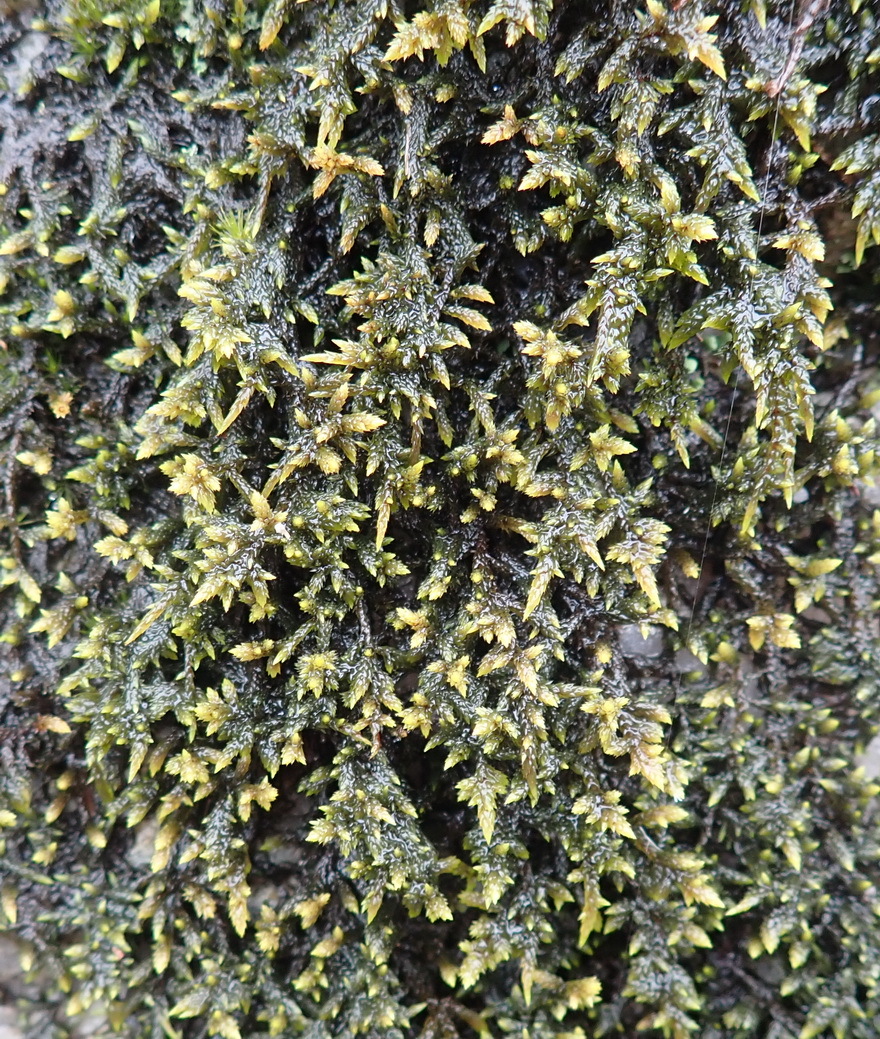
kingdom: Plantae
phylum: Bryophyta
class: Bryopsida
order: Hypnales
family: Catagoniaceae
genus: Catagonium
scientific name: Catagonium nitens
